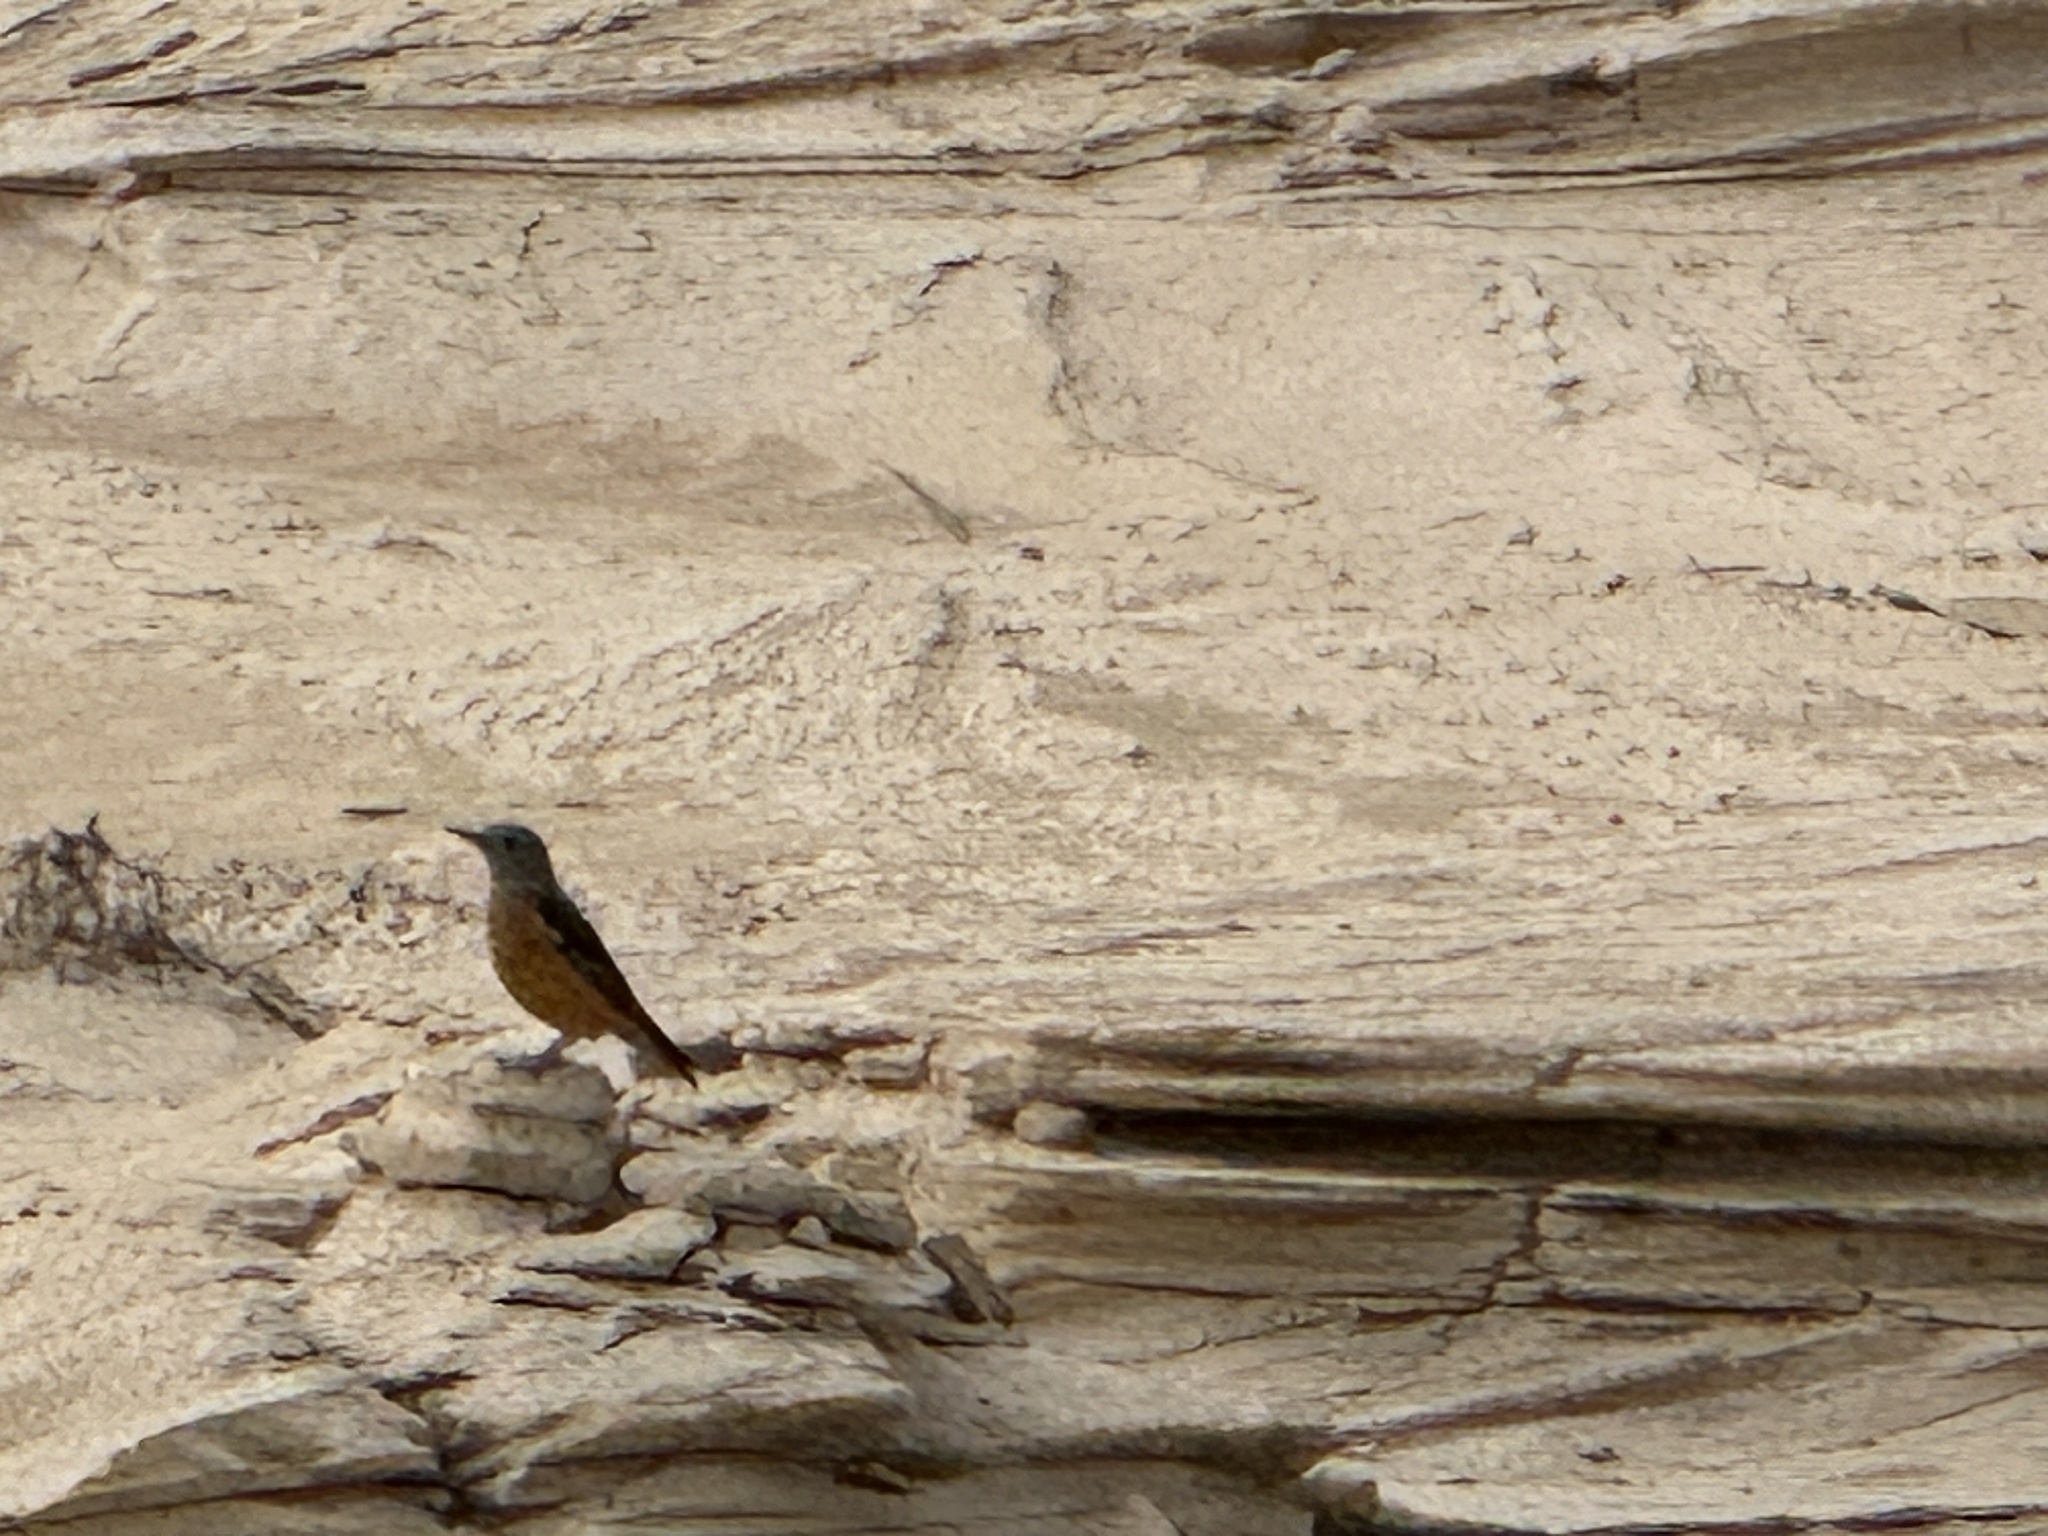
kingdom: Animalia
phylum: Chordata
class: Aves
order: Passeriformes
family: Muscicapidae
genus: Monticola
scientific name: Monticola saxatilis
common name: Rufous-tailed rock thrush
